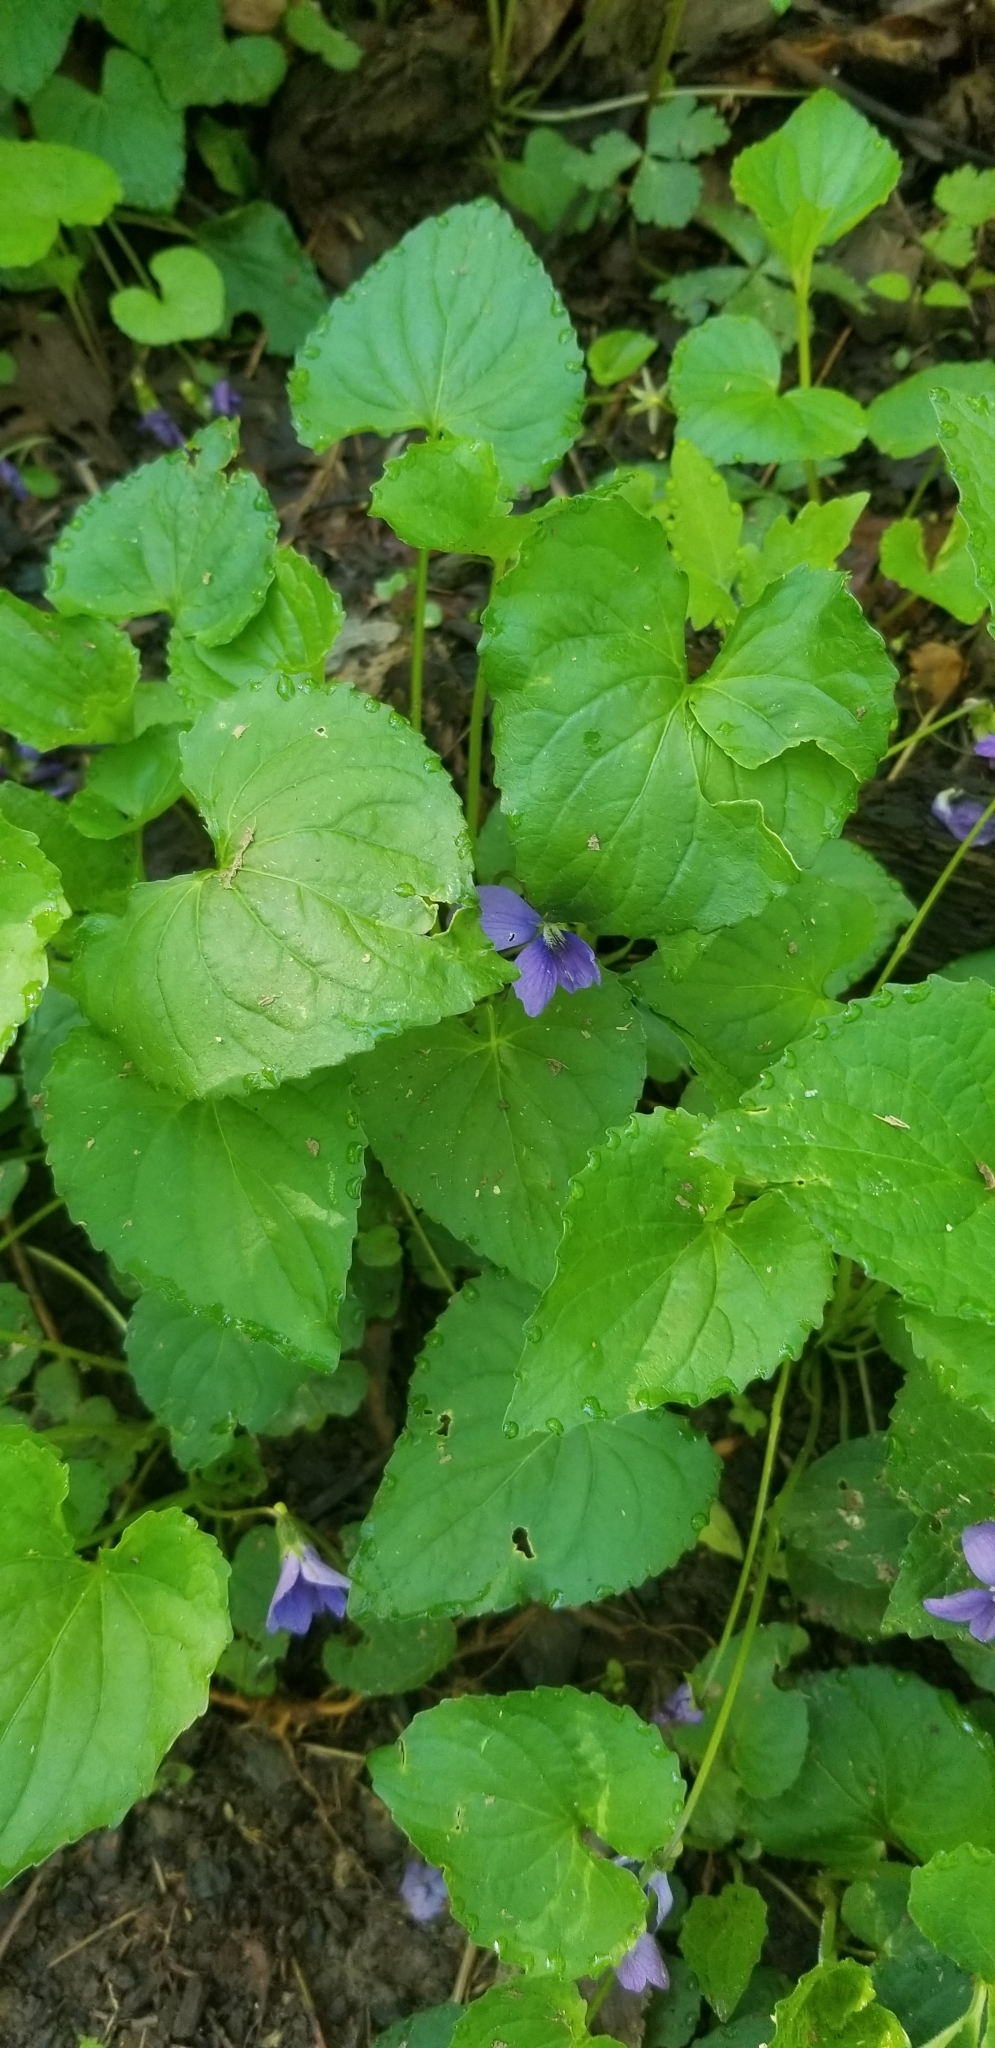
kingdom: Plantae
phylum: Tracheophyta
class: Magnoliopsida
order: Malpighiales
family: Violaceae
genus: Viola
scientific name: Viola sororia
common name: Dooryard violet
